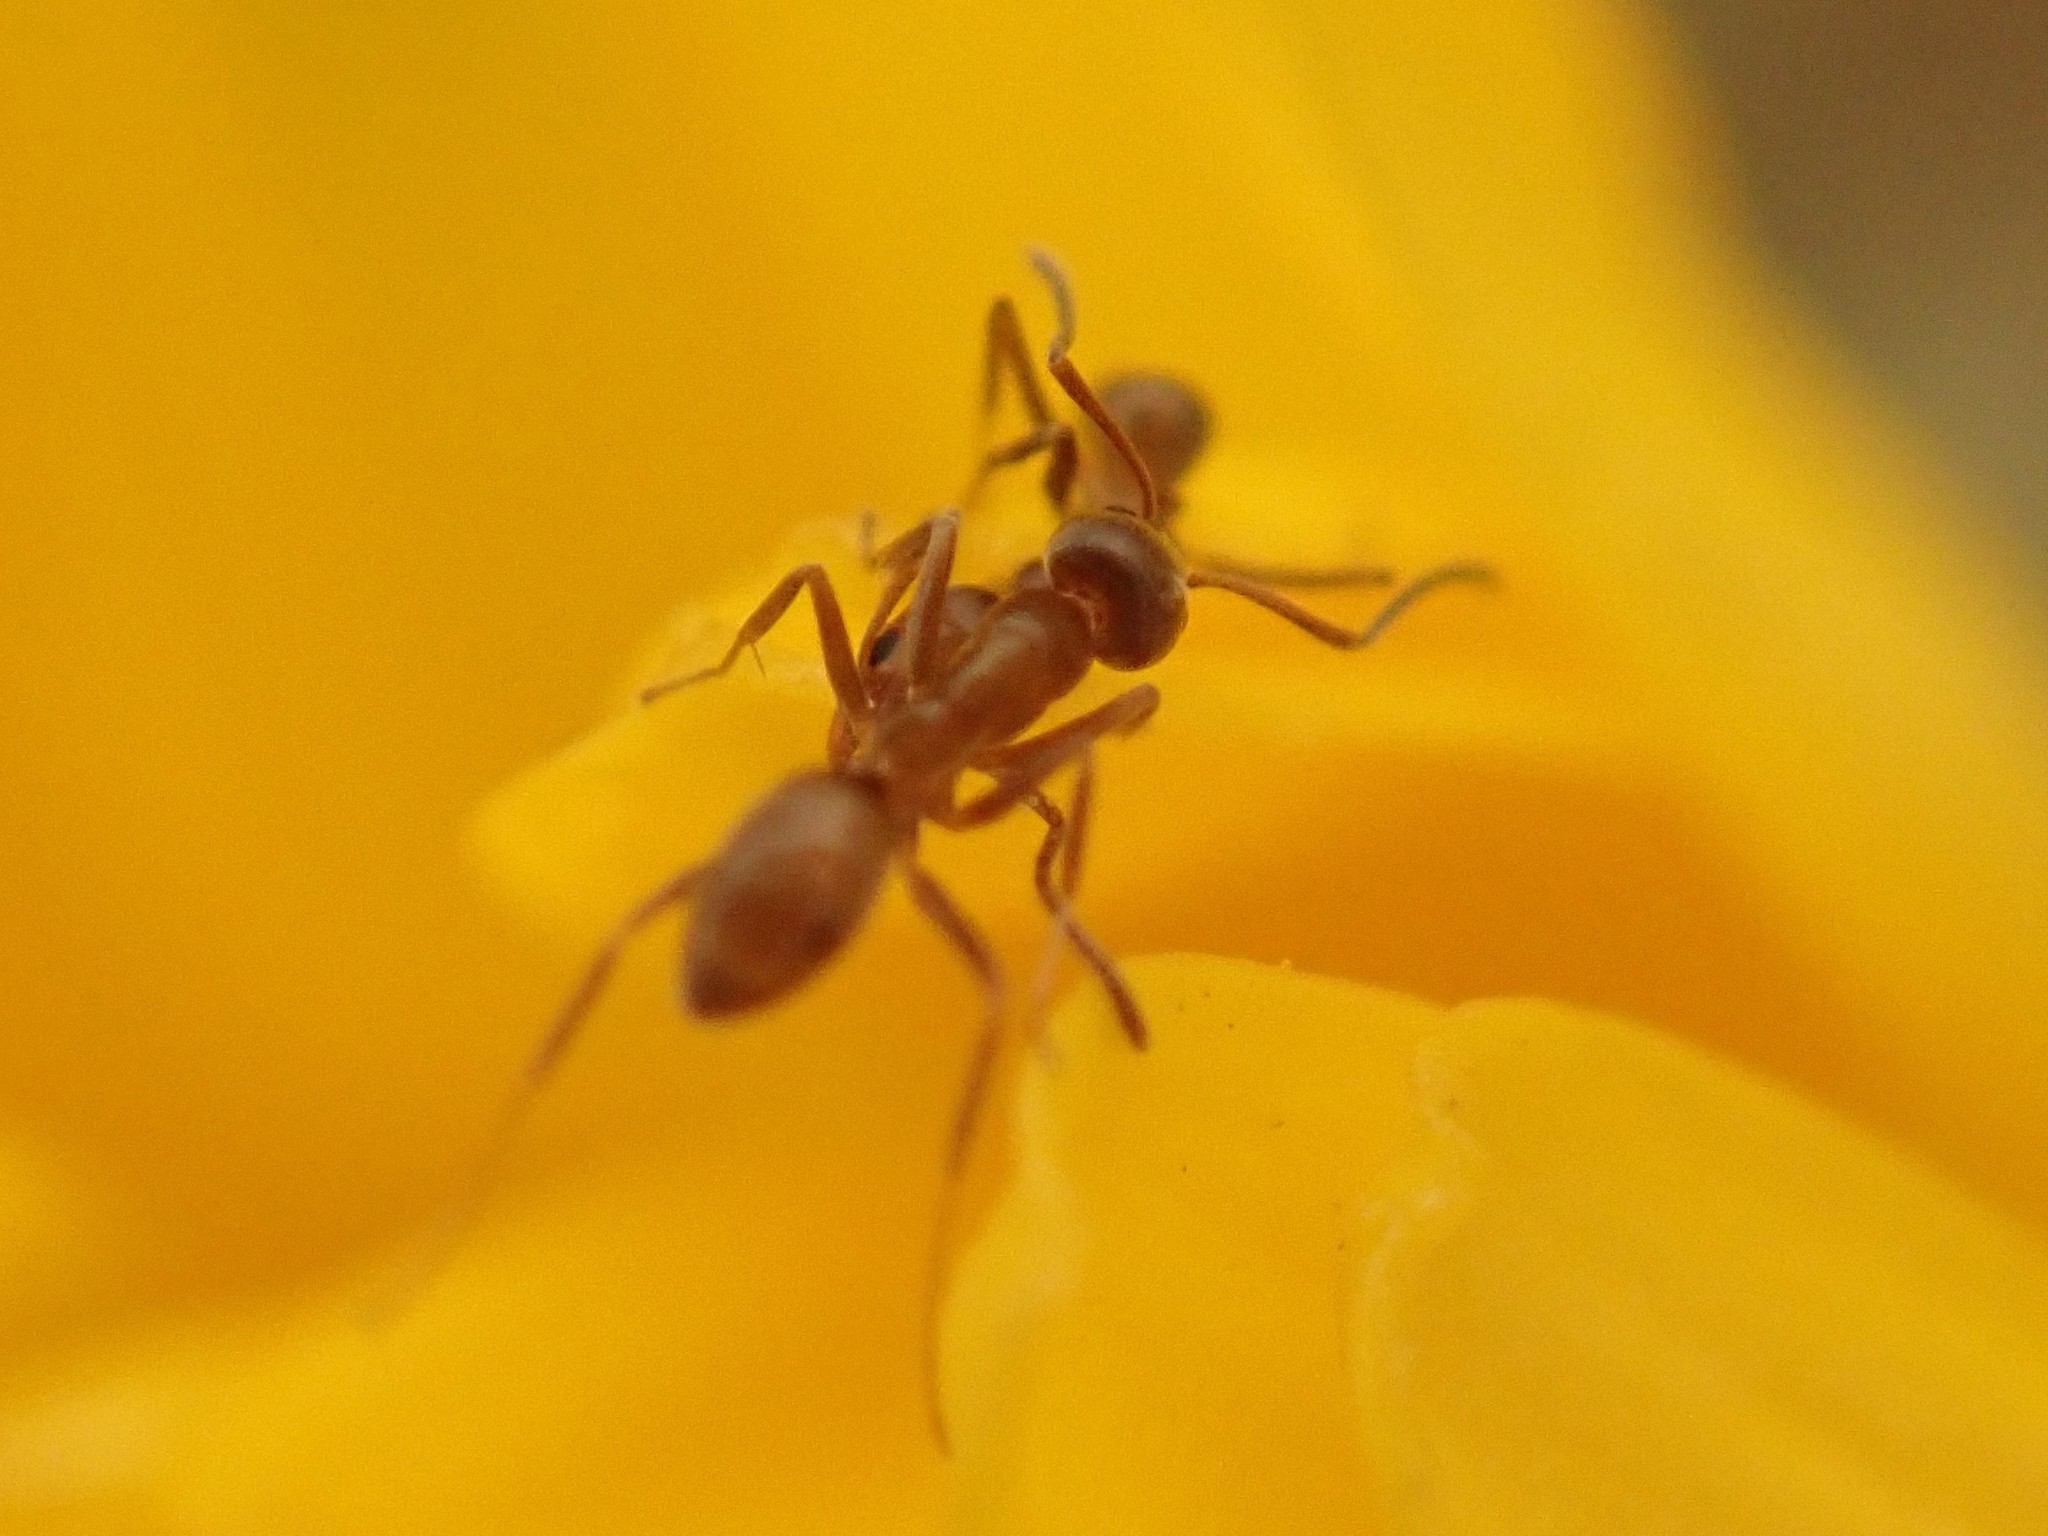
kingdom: Animalia
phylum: Arthropoda
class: Insecta
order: Hymenoptera
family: Formicidae
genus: Linepithema
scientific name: Linepithema humile
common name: Argentine ant
